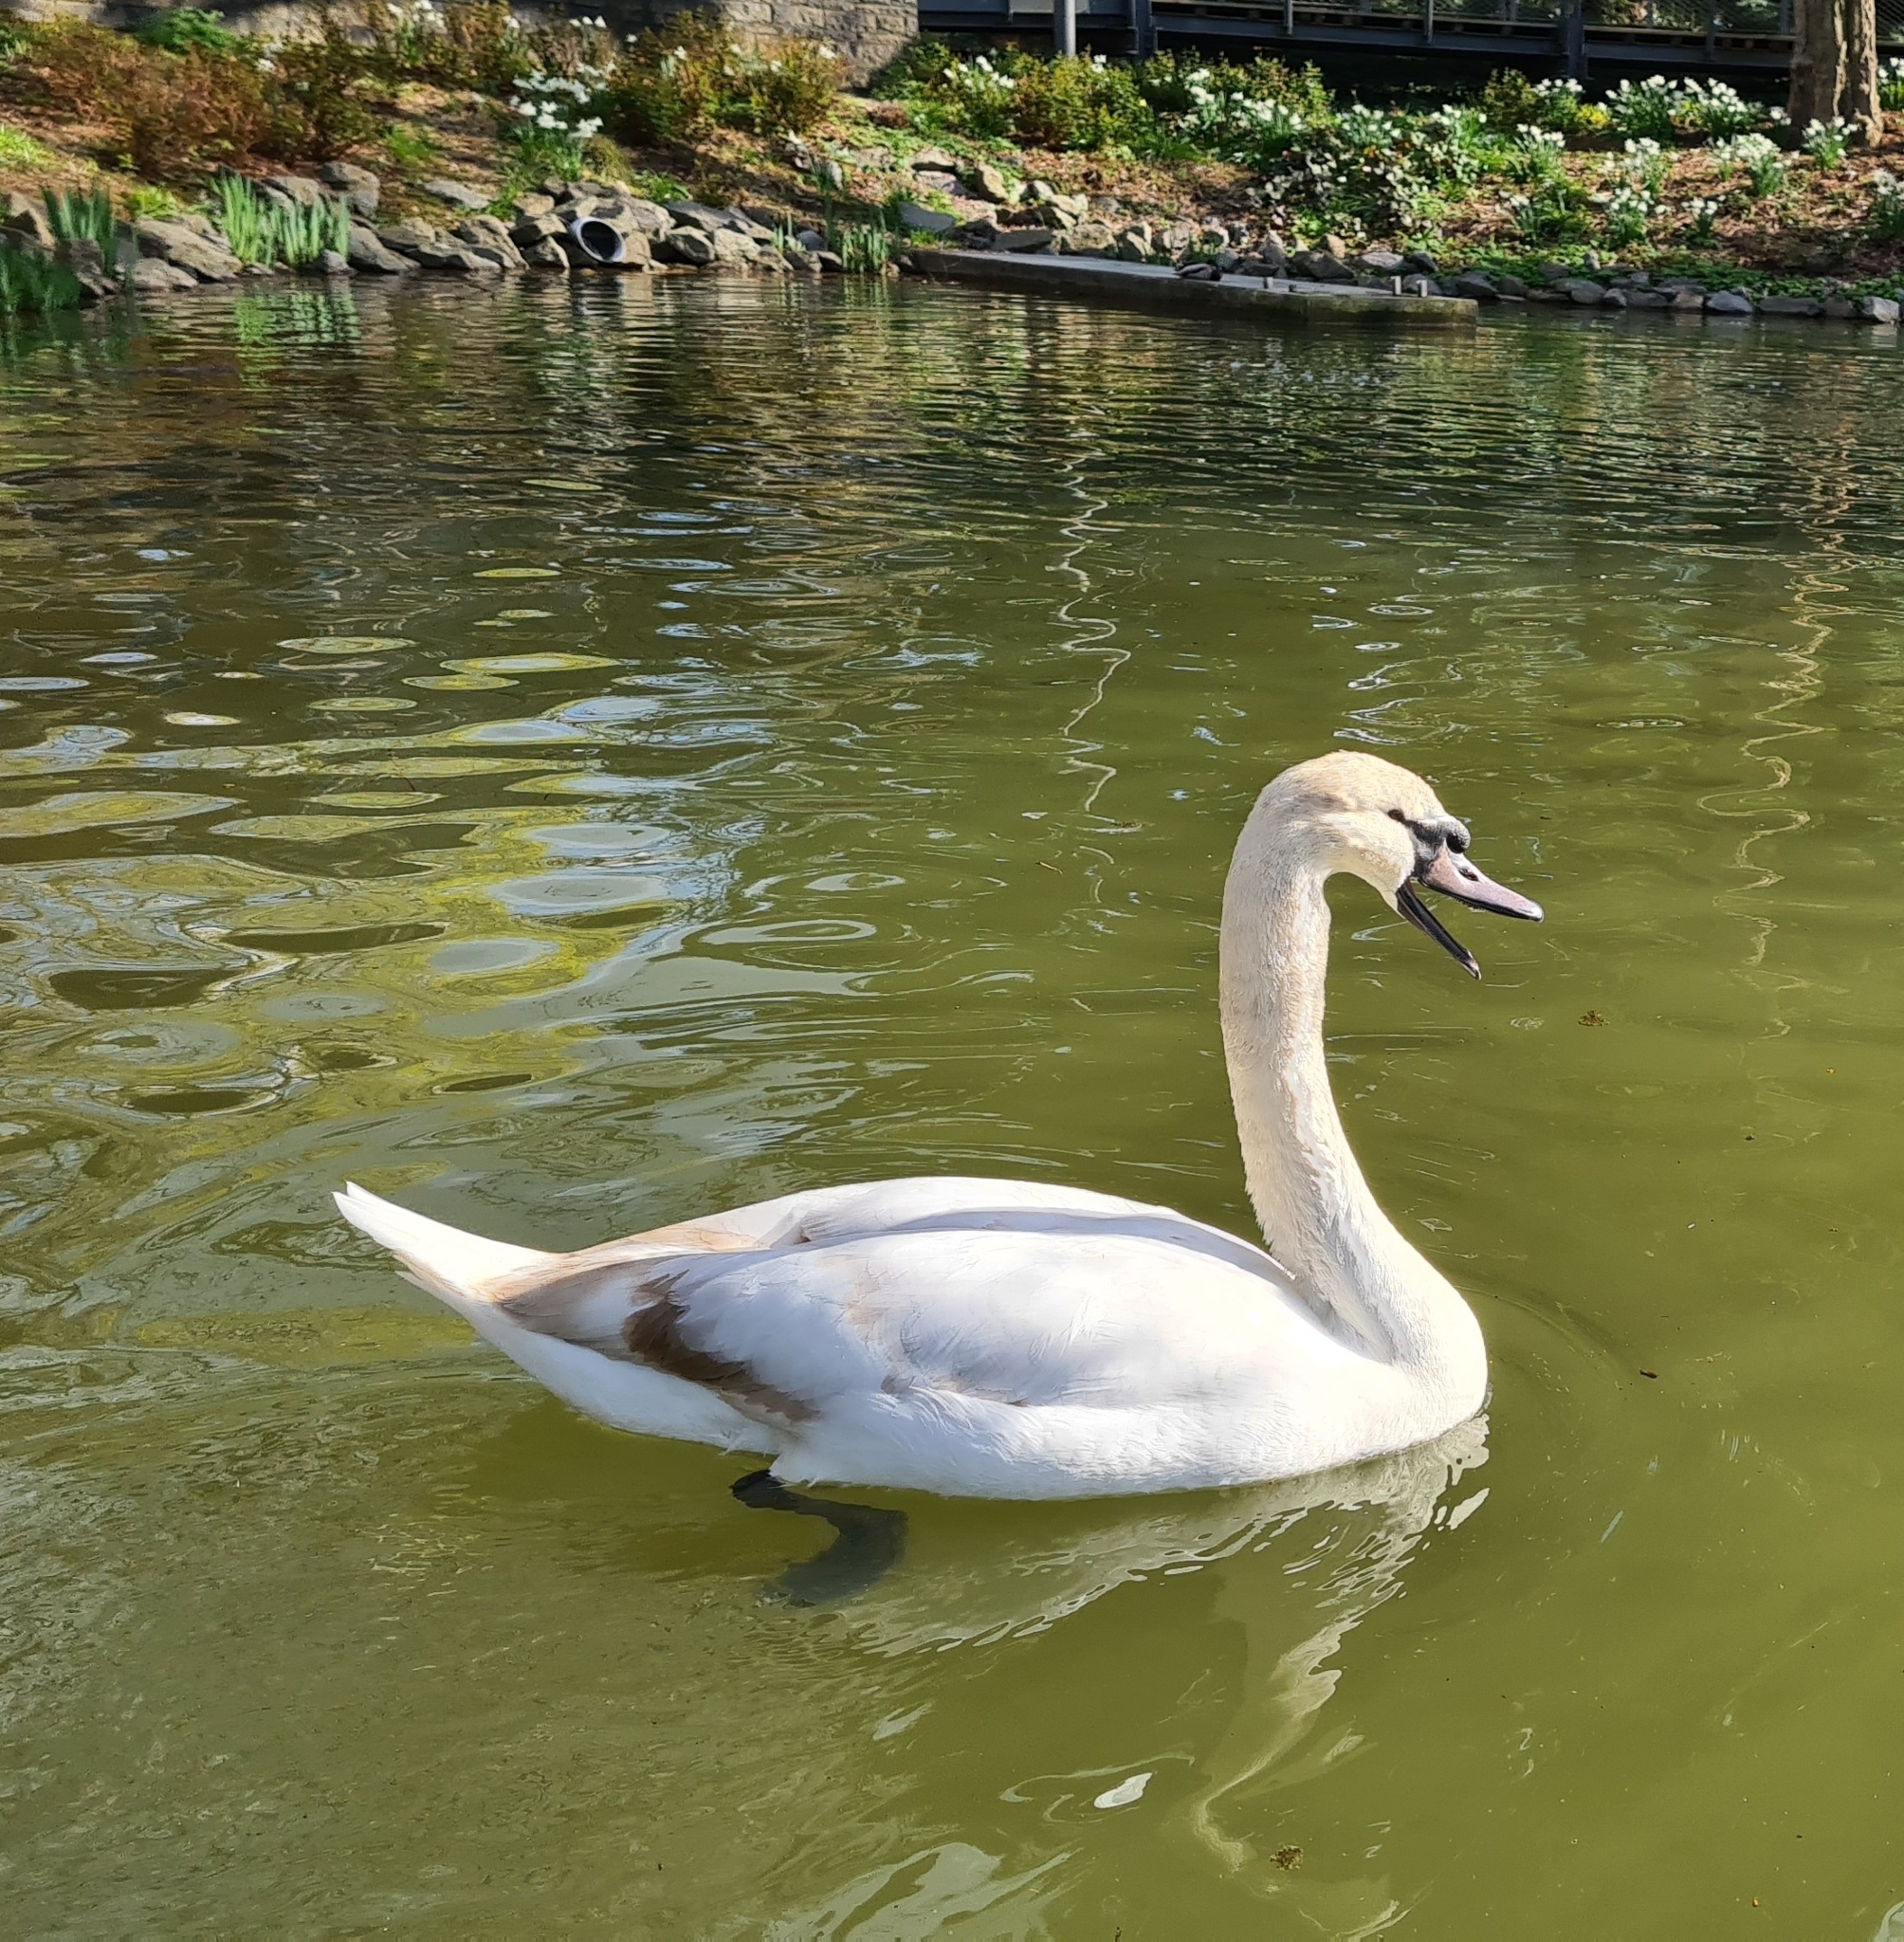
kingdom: Animalia
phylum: Chordata
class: Aves
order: Anseriformes
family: Anatidae
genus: Cygnus
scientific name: Cygnus olor
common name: Mute swan
